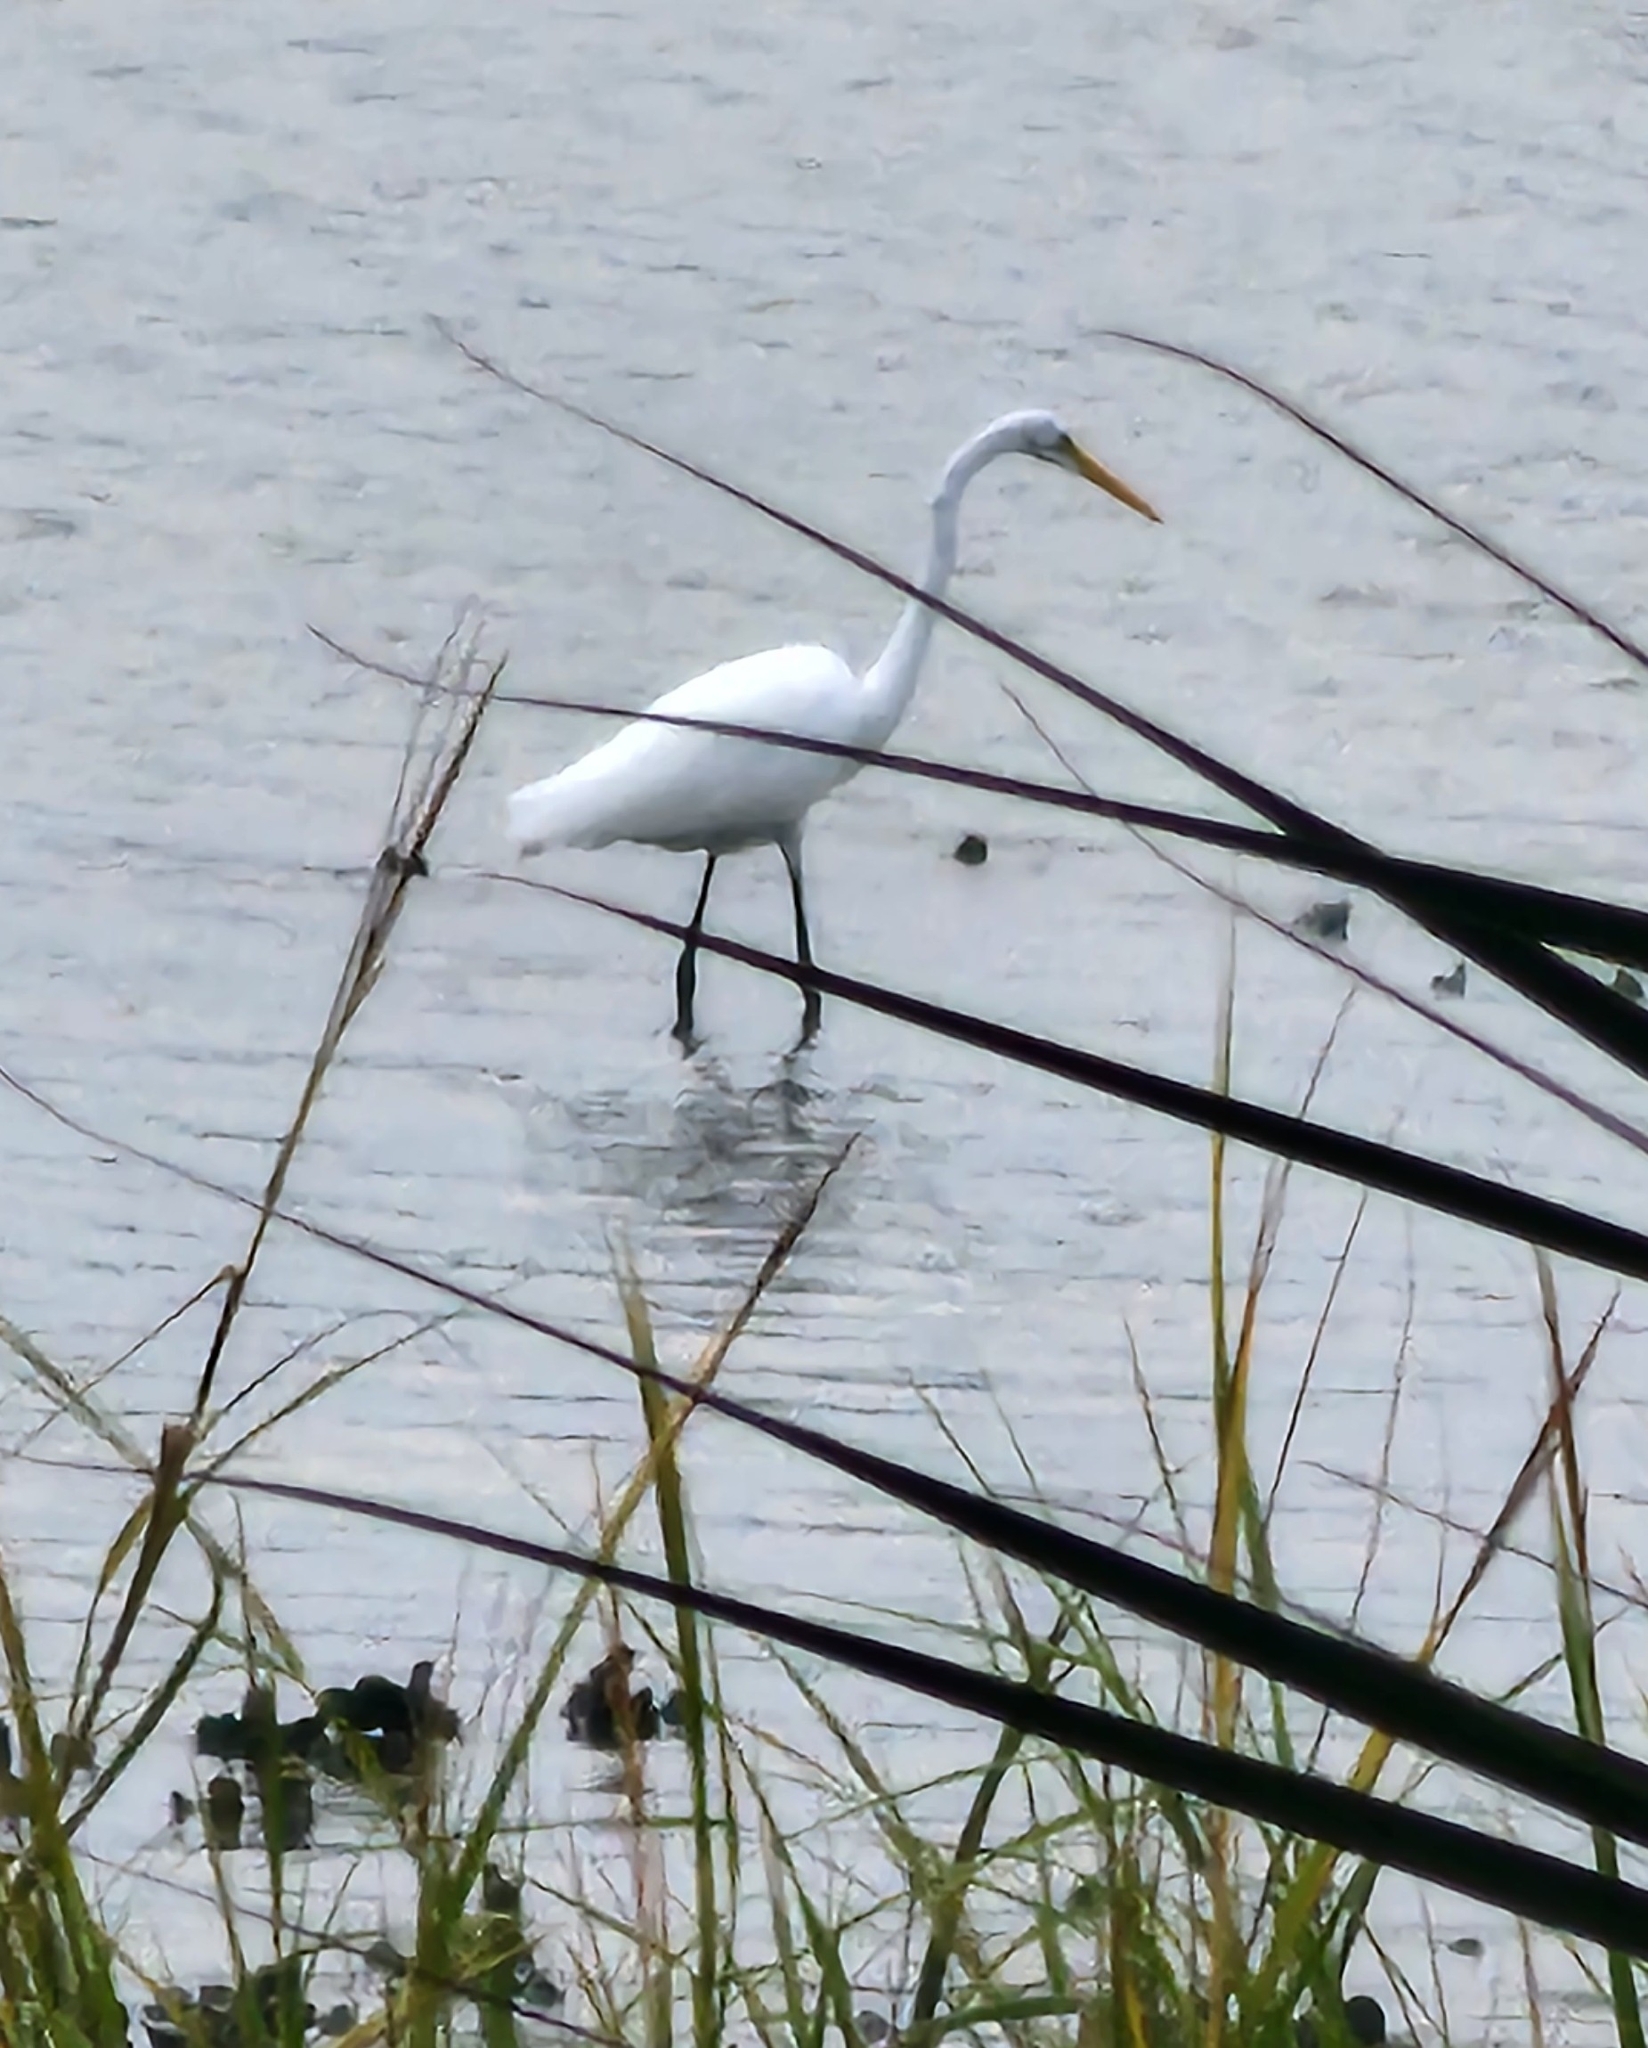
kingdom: Animalia
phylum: Chordata
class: Aves
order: Pelecaniformes
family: Ardeidae
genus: Ardea
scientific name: Ardea alba
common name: Great egret
